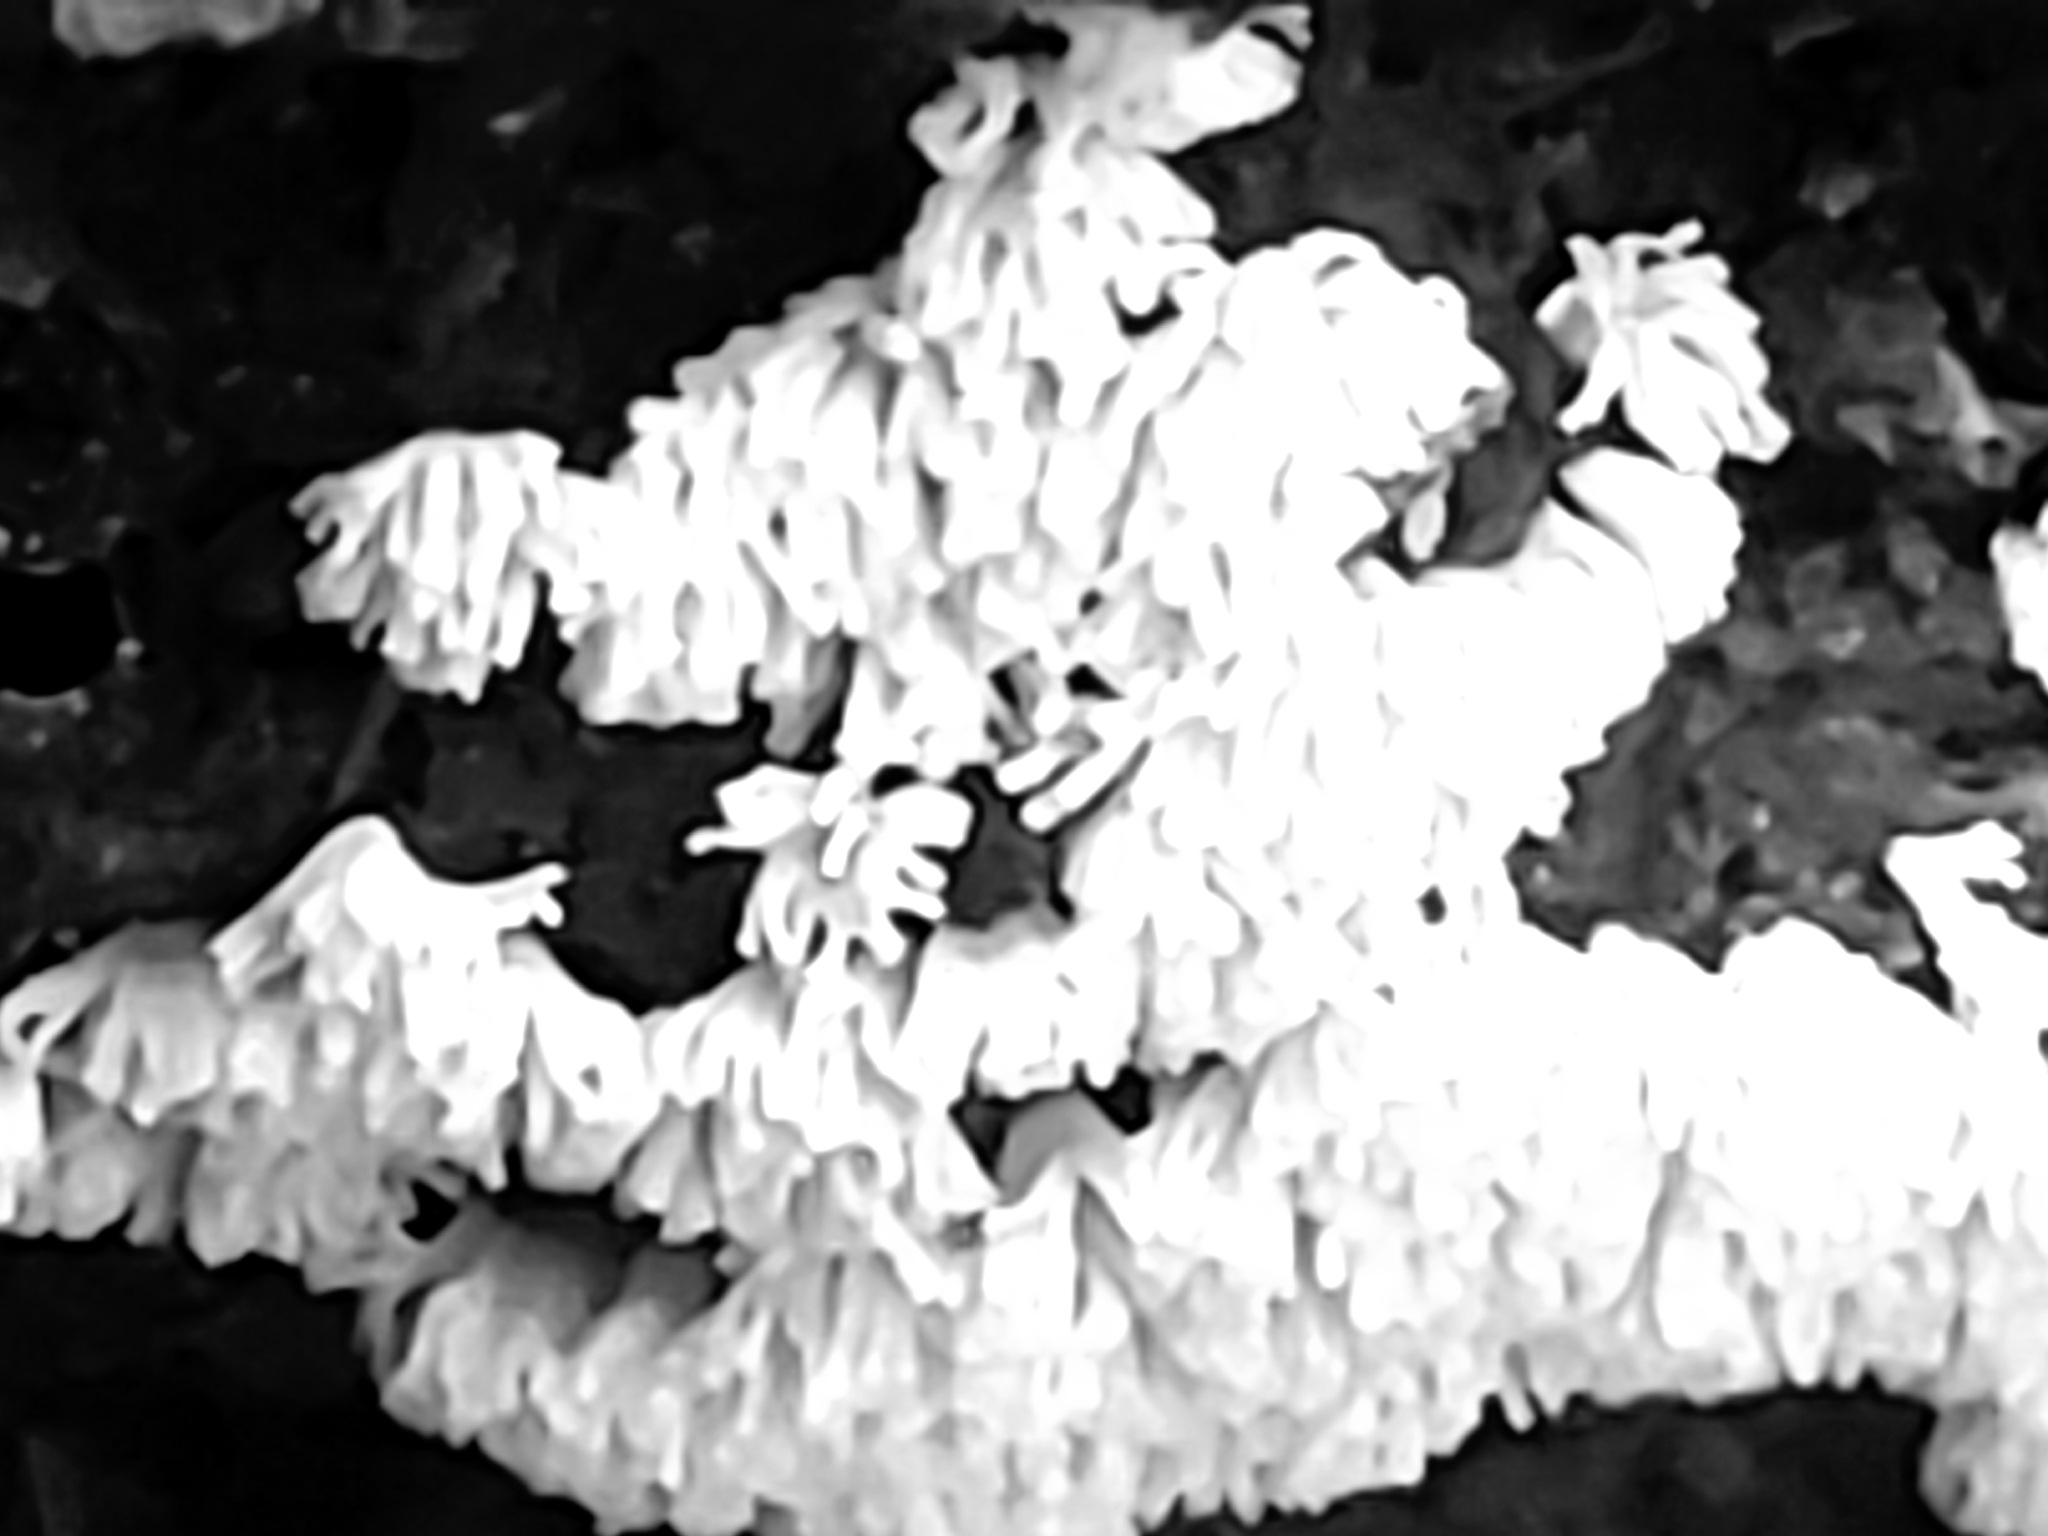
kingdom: Protozoa
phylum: Mycetozoa
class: Protosteliomycetes
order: Ceratiomyxales
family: Ceratiomyxaceae
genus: Ceratiomyxa
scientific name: Ceratiomyxa fruticulosa
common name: Honeycomb coral slime mold
